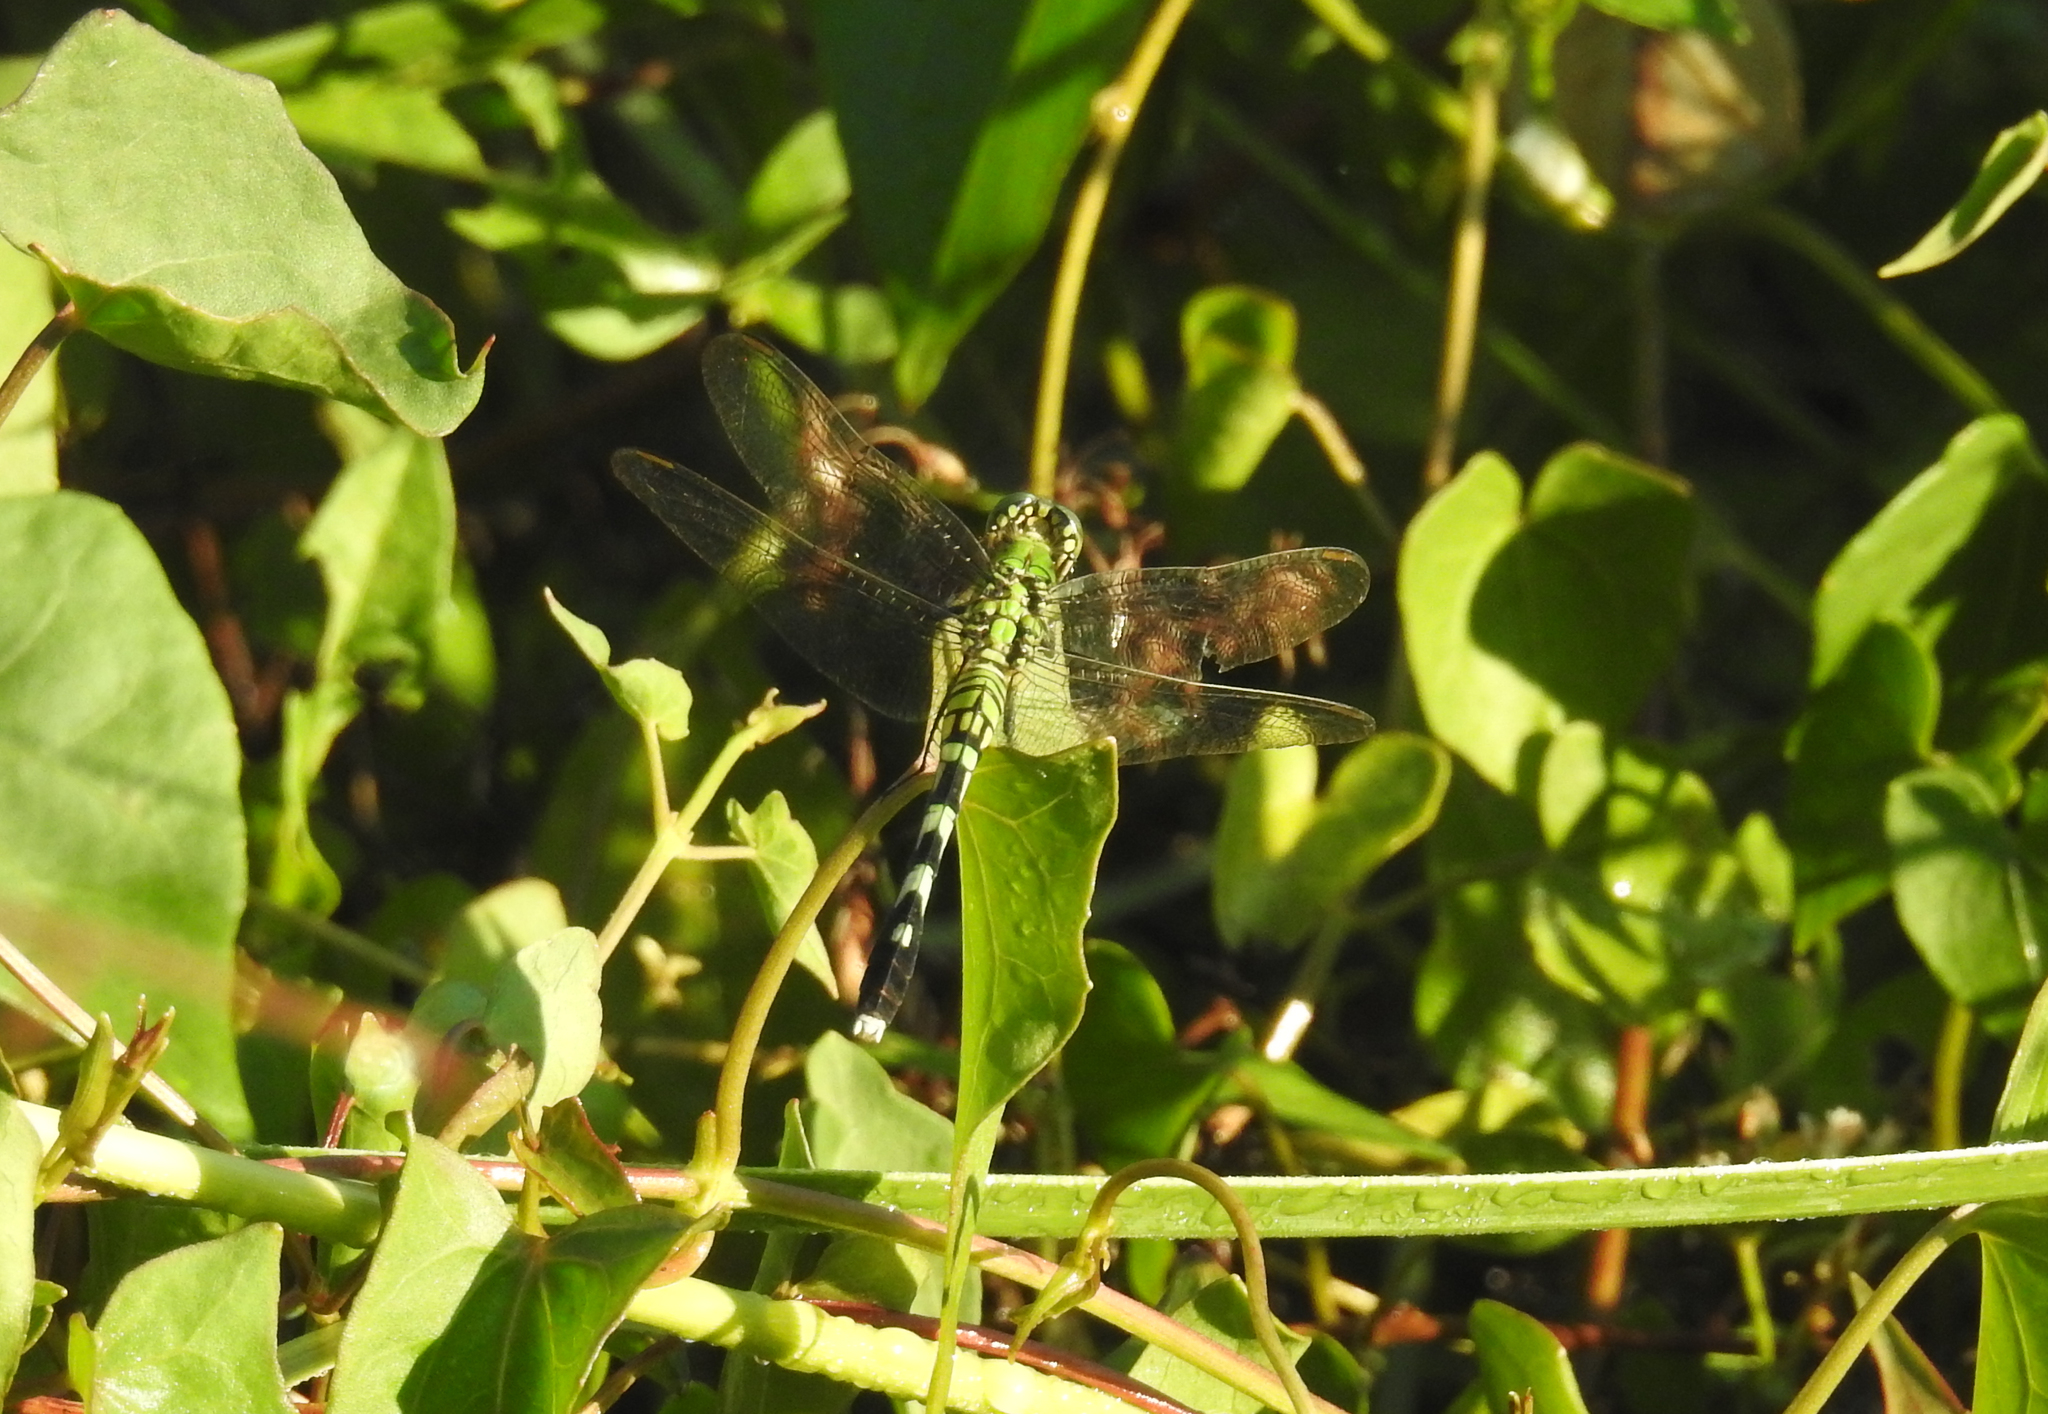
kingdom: Animalia
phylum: Arthropoda
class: Insecta
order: Odonata
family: Libellulidae
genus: Erythemis
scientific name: Erythemis simplicicollis
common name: Eastern pondhawk
